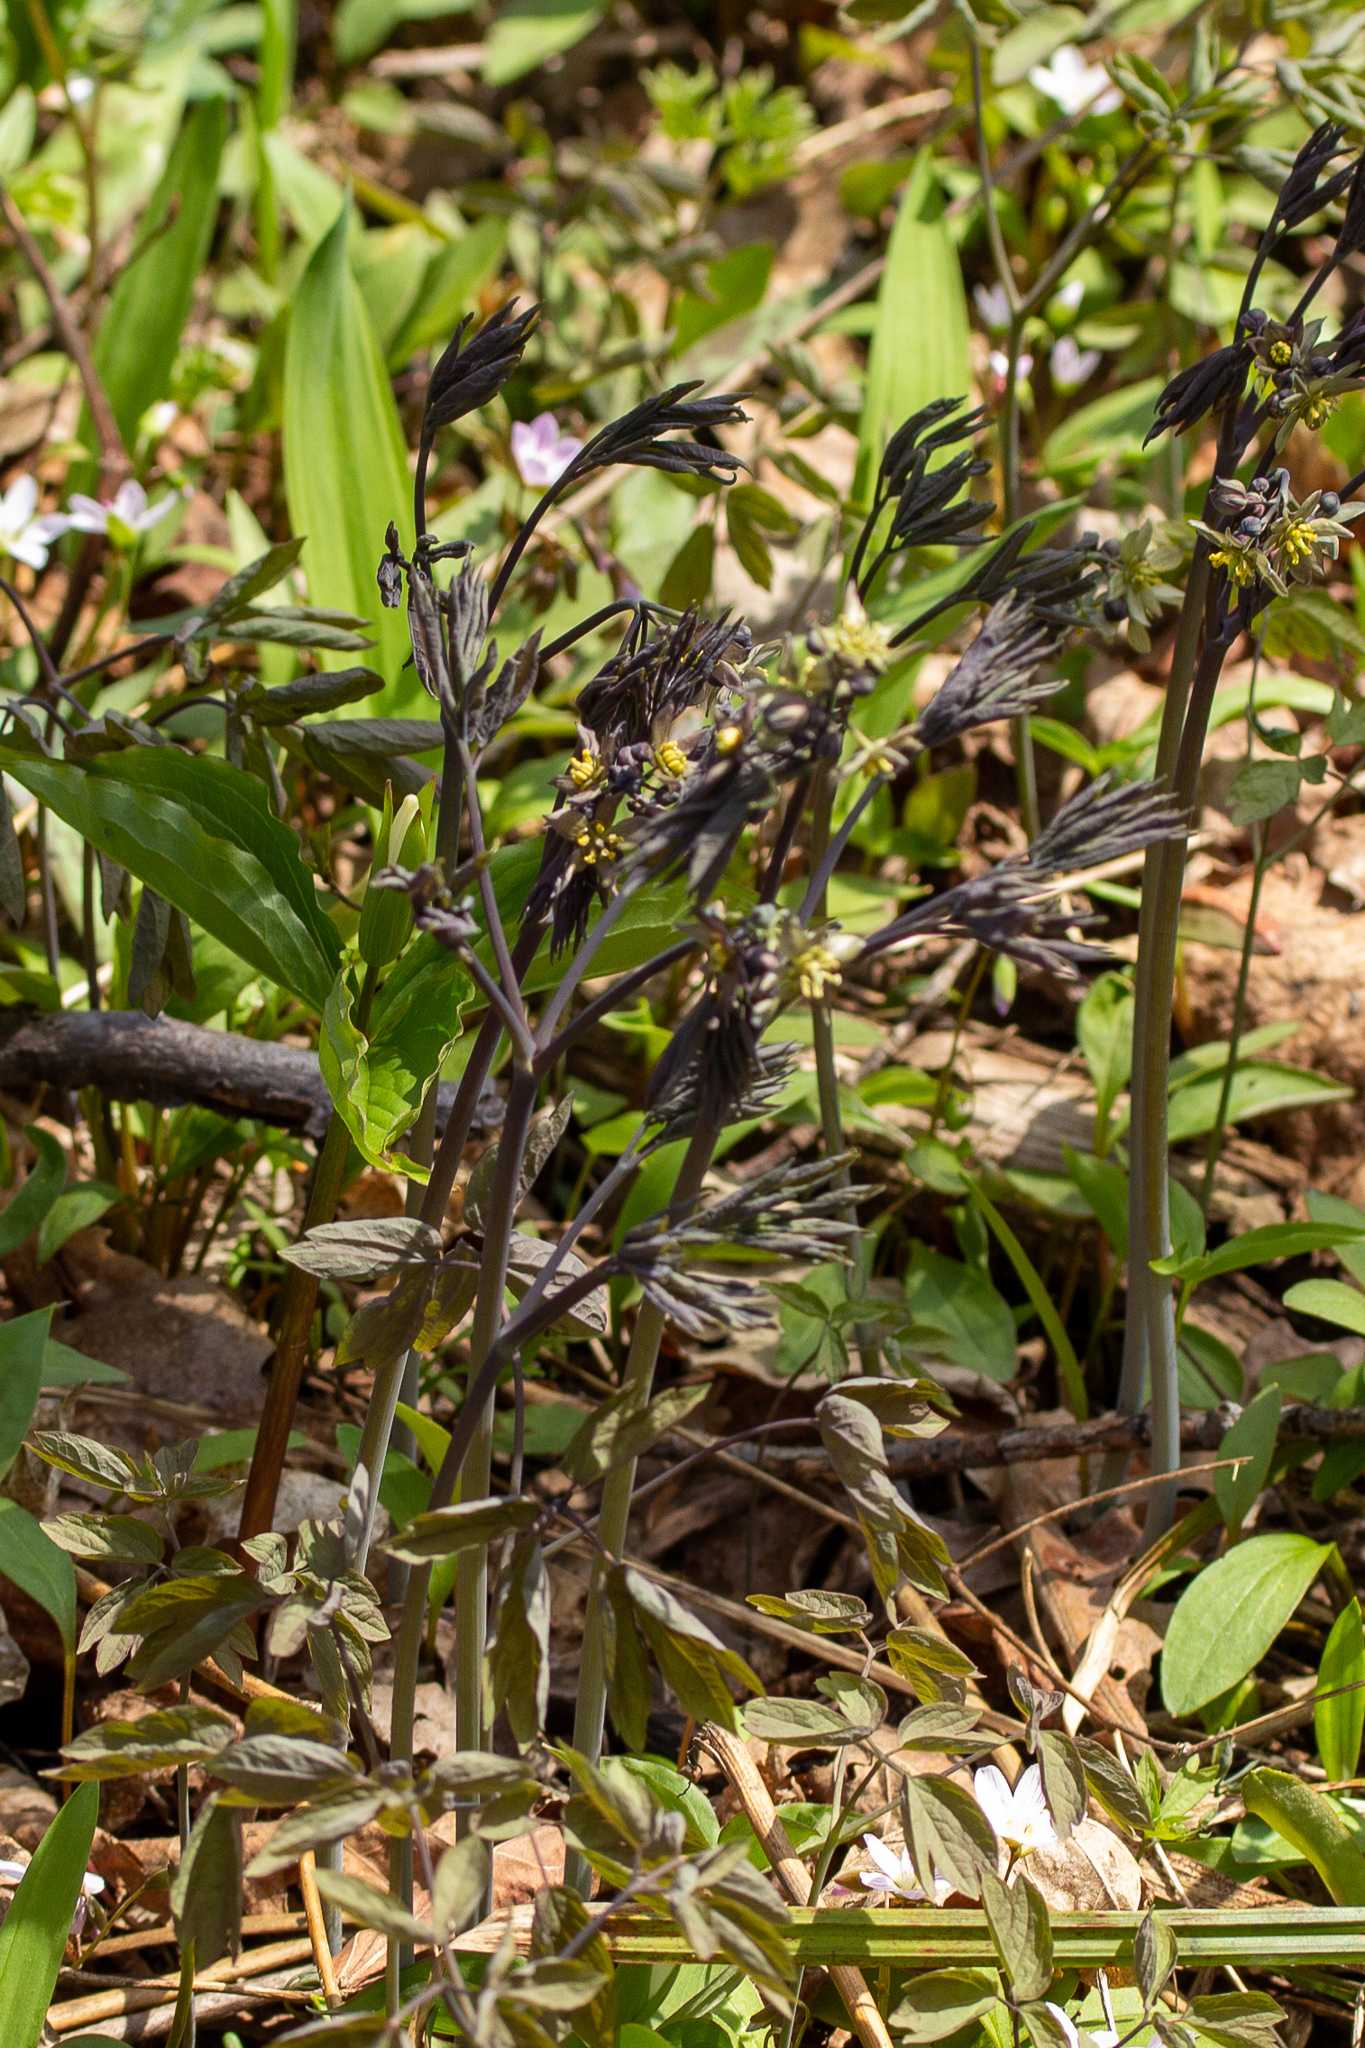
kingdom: Plantae
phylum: Tracheophyta
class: Magnoliopsida
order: Ranunculales
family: Berberidaceae
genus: Caulophyllum
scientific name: Caulophyllum giganteum
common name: Blue cohosh
